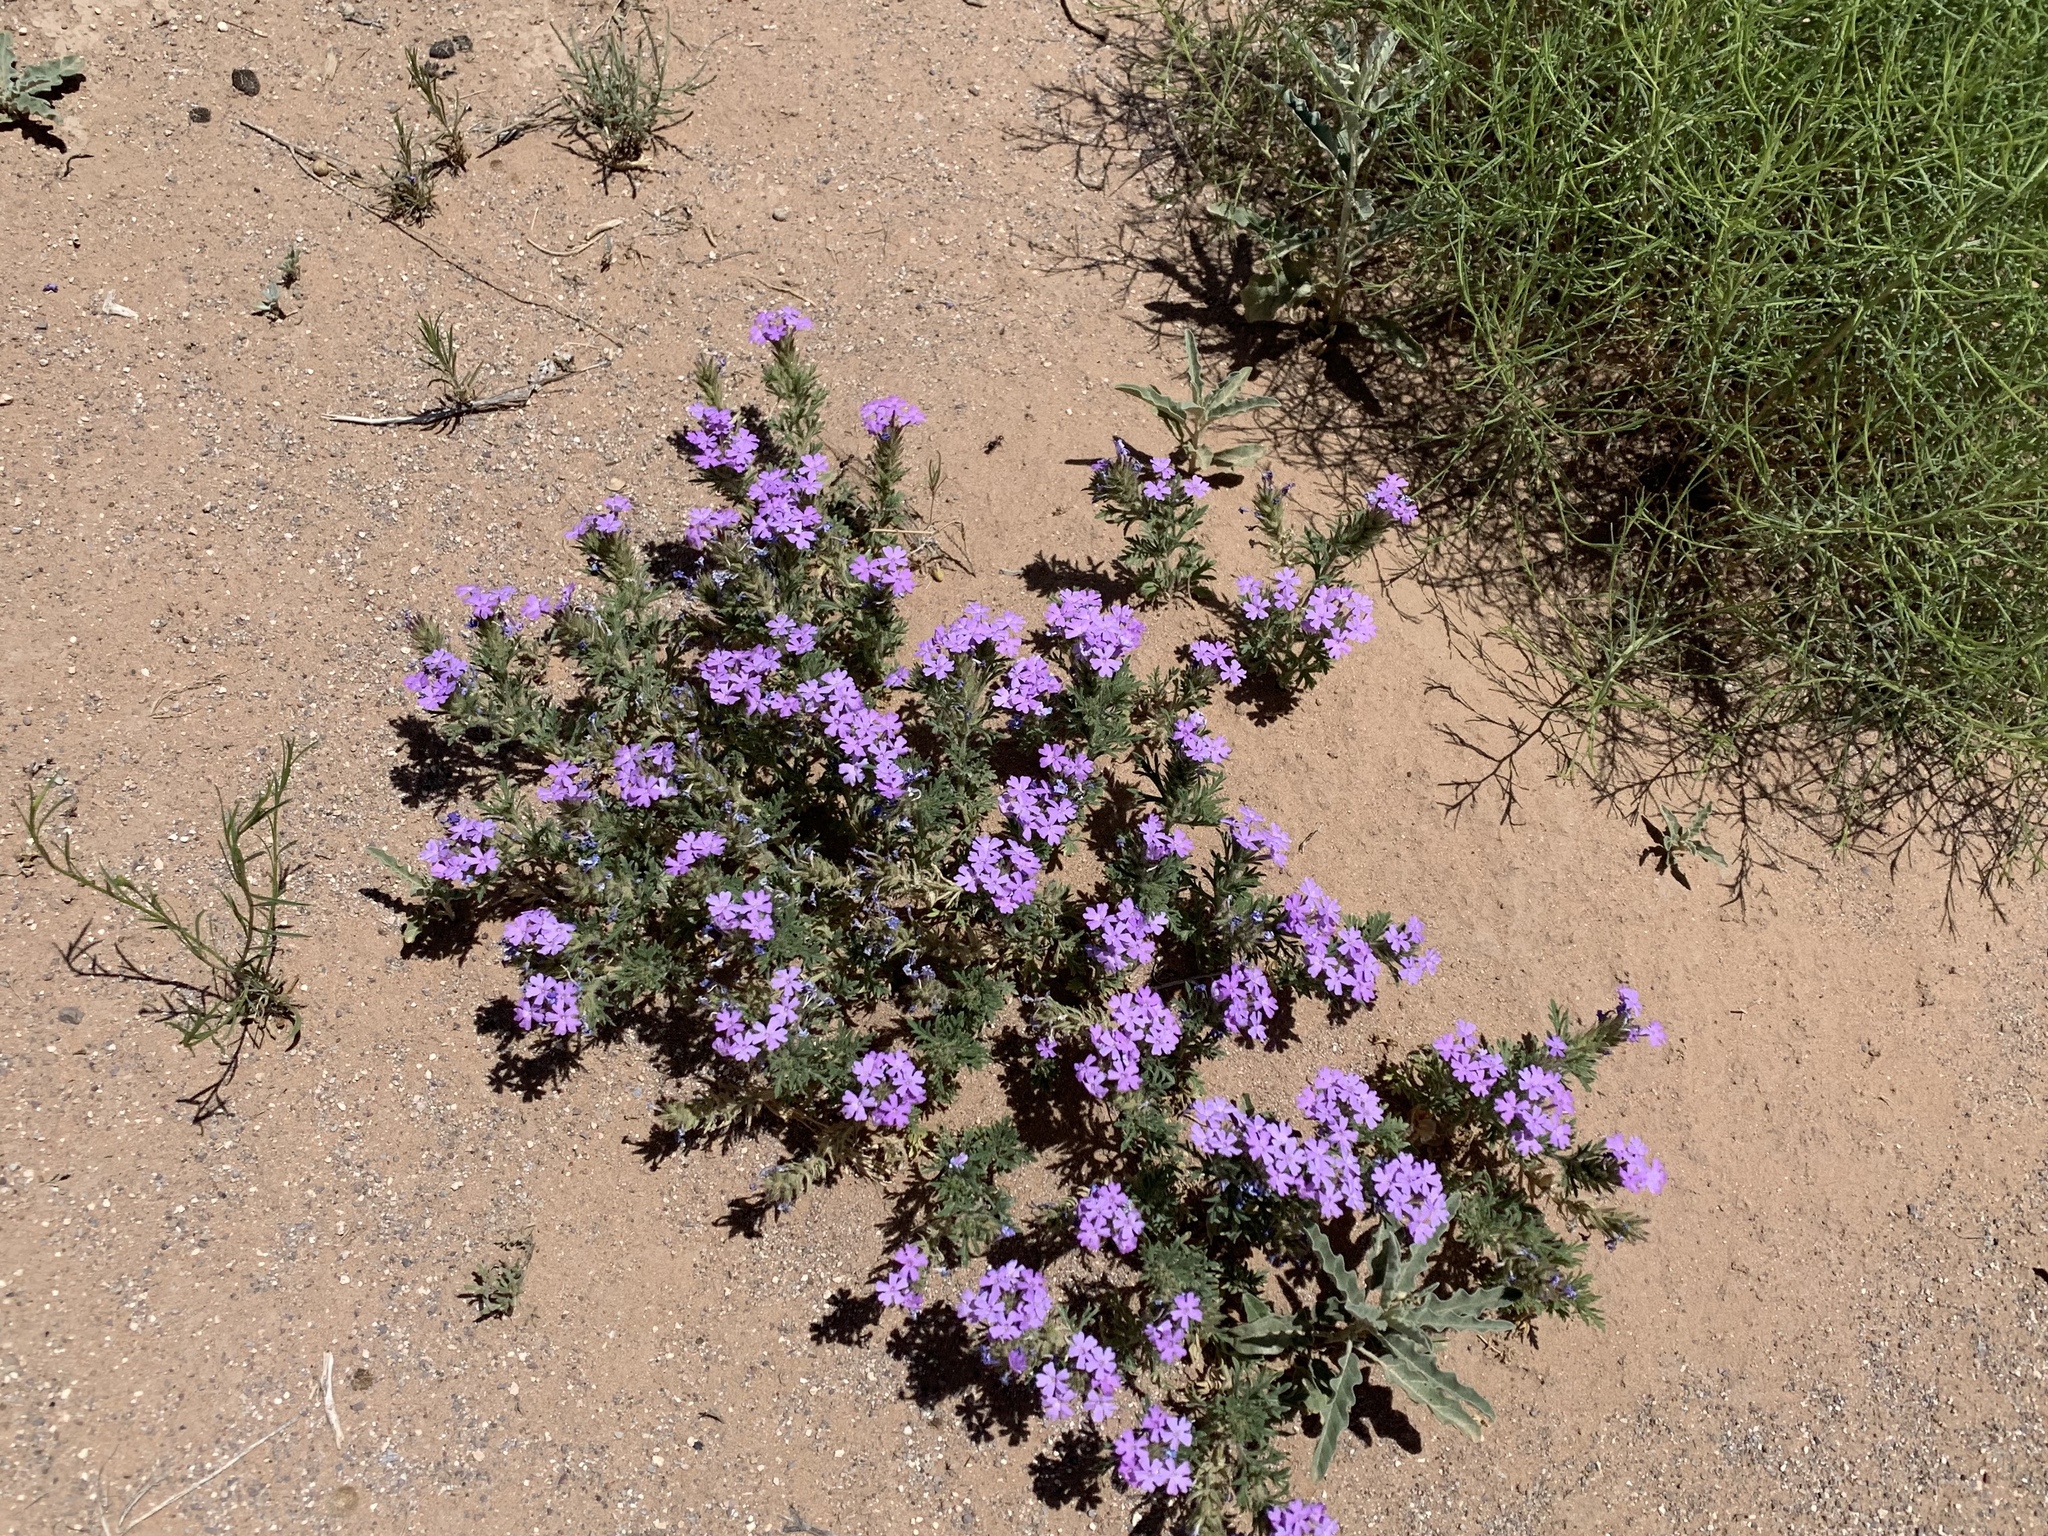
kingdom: Plantae
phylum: Tracheophyta
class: Magnoliopsida
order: Lamiales
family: Verbenaceae
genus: Verbena
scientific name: Verbena bipinnatifida
